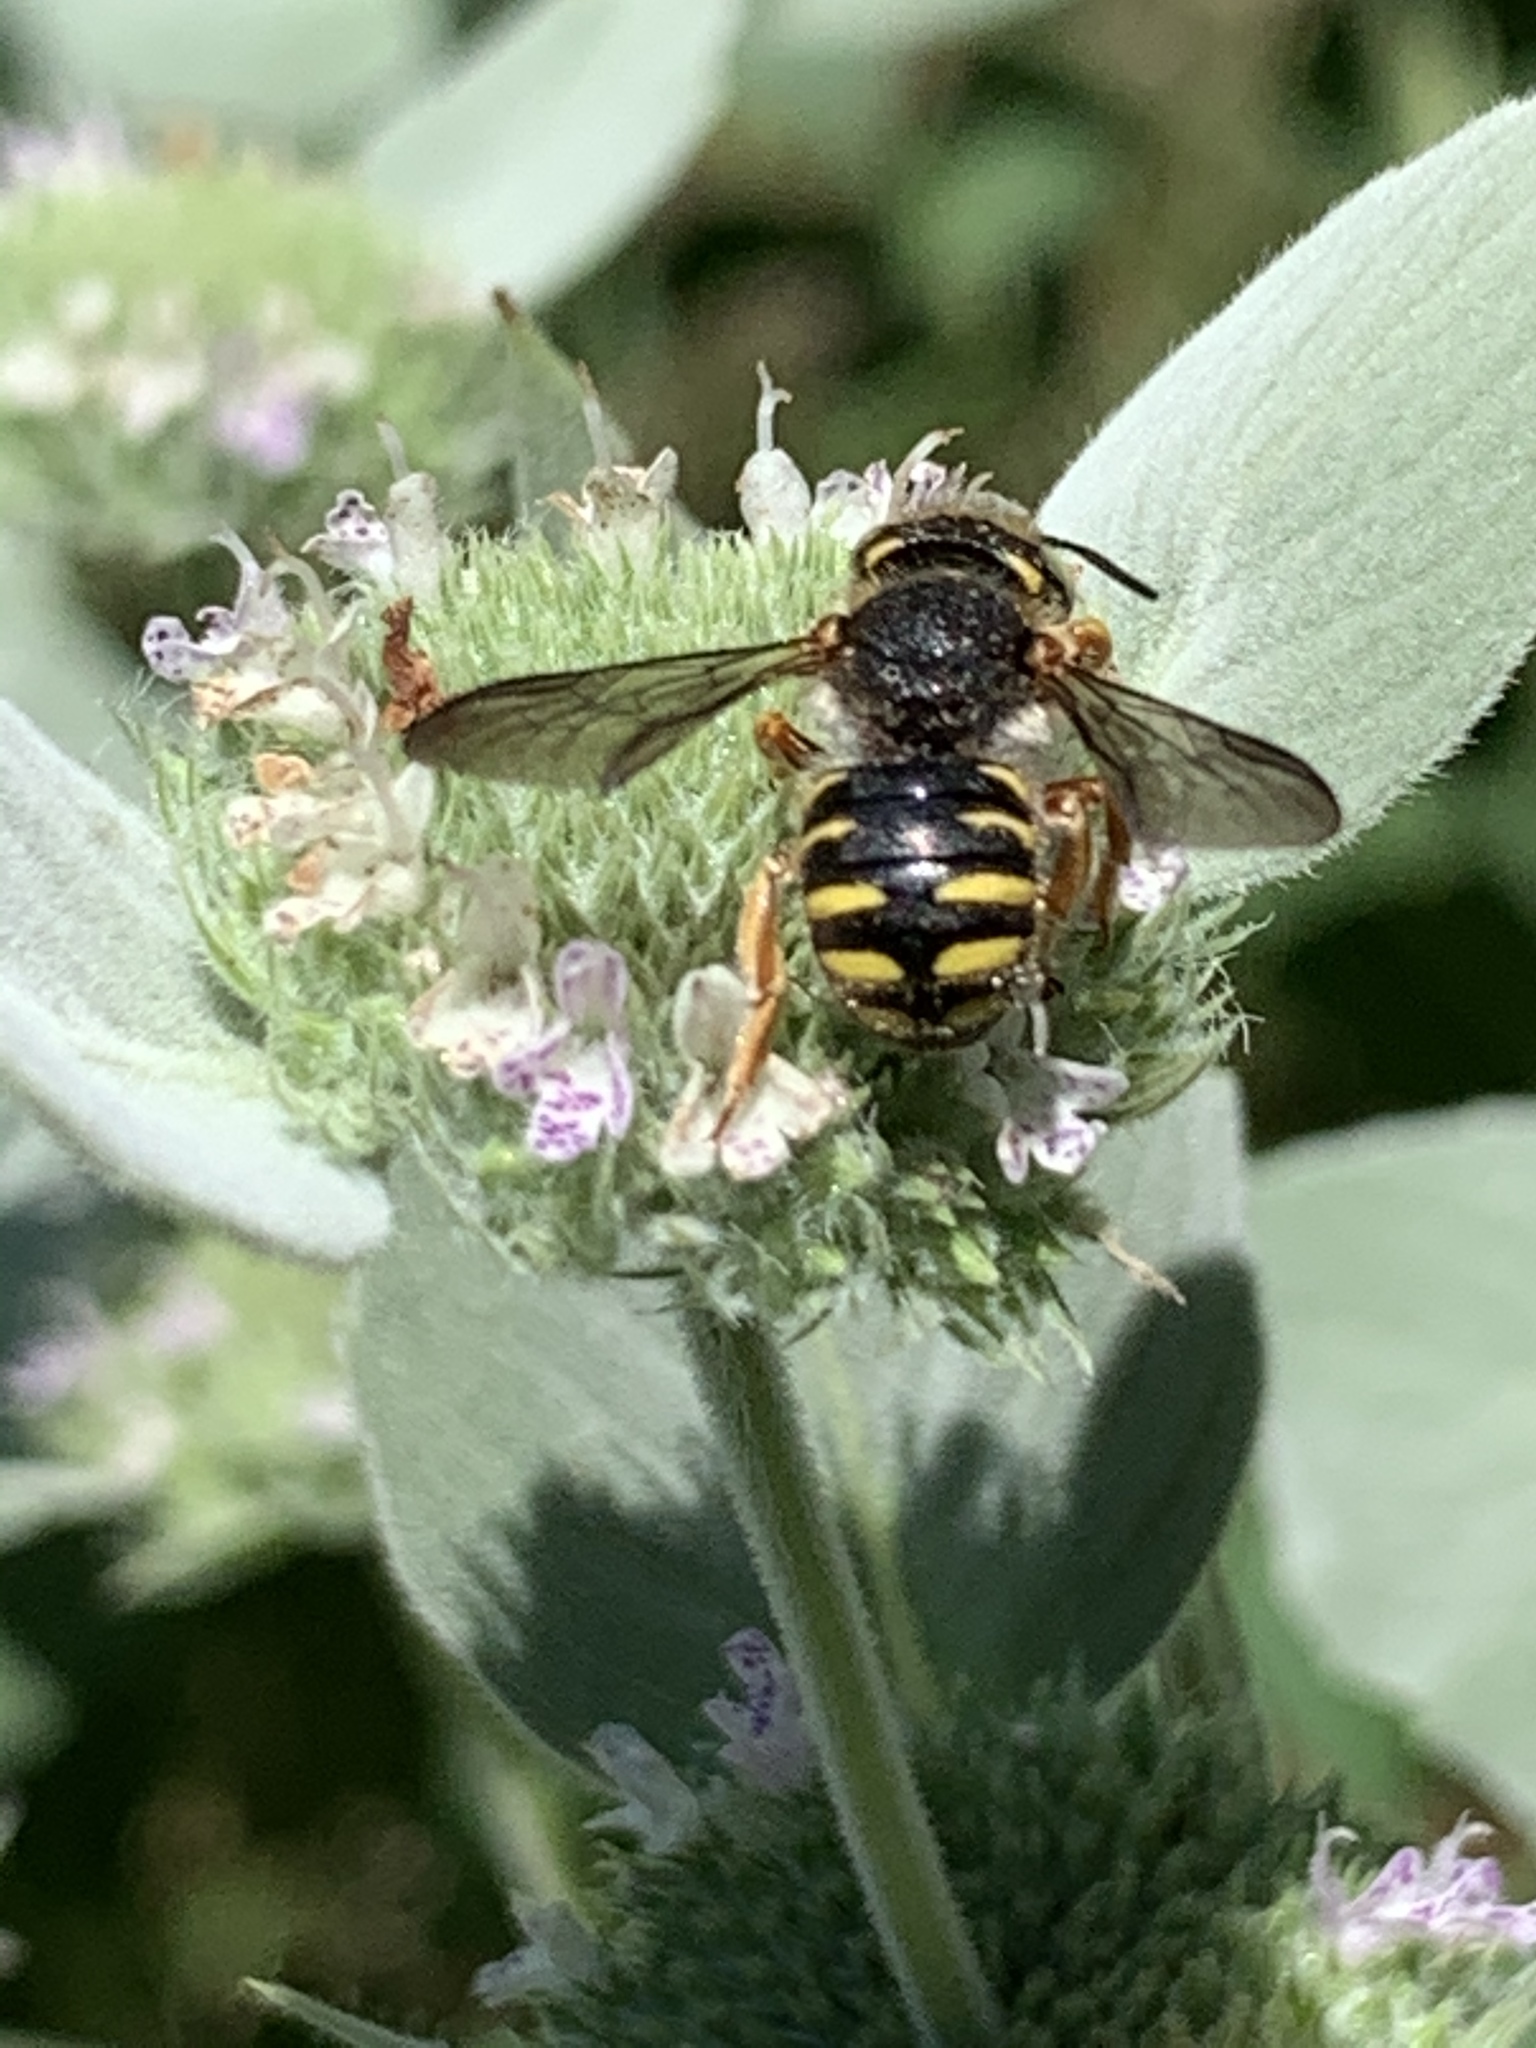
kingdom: Animalia
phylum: Arthropoda
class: Insecta
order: Hymenoptera
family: Megachilidae
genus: Anthidium
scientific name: Anthidium oblongatum
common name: Oblong wool carder bee
